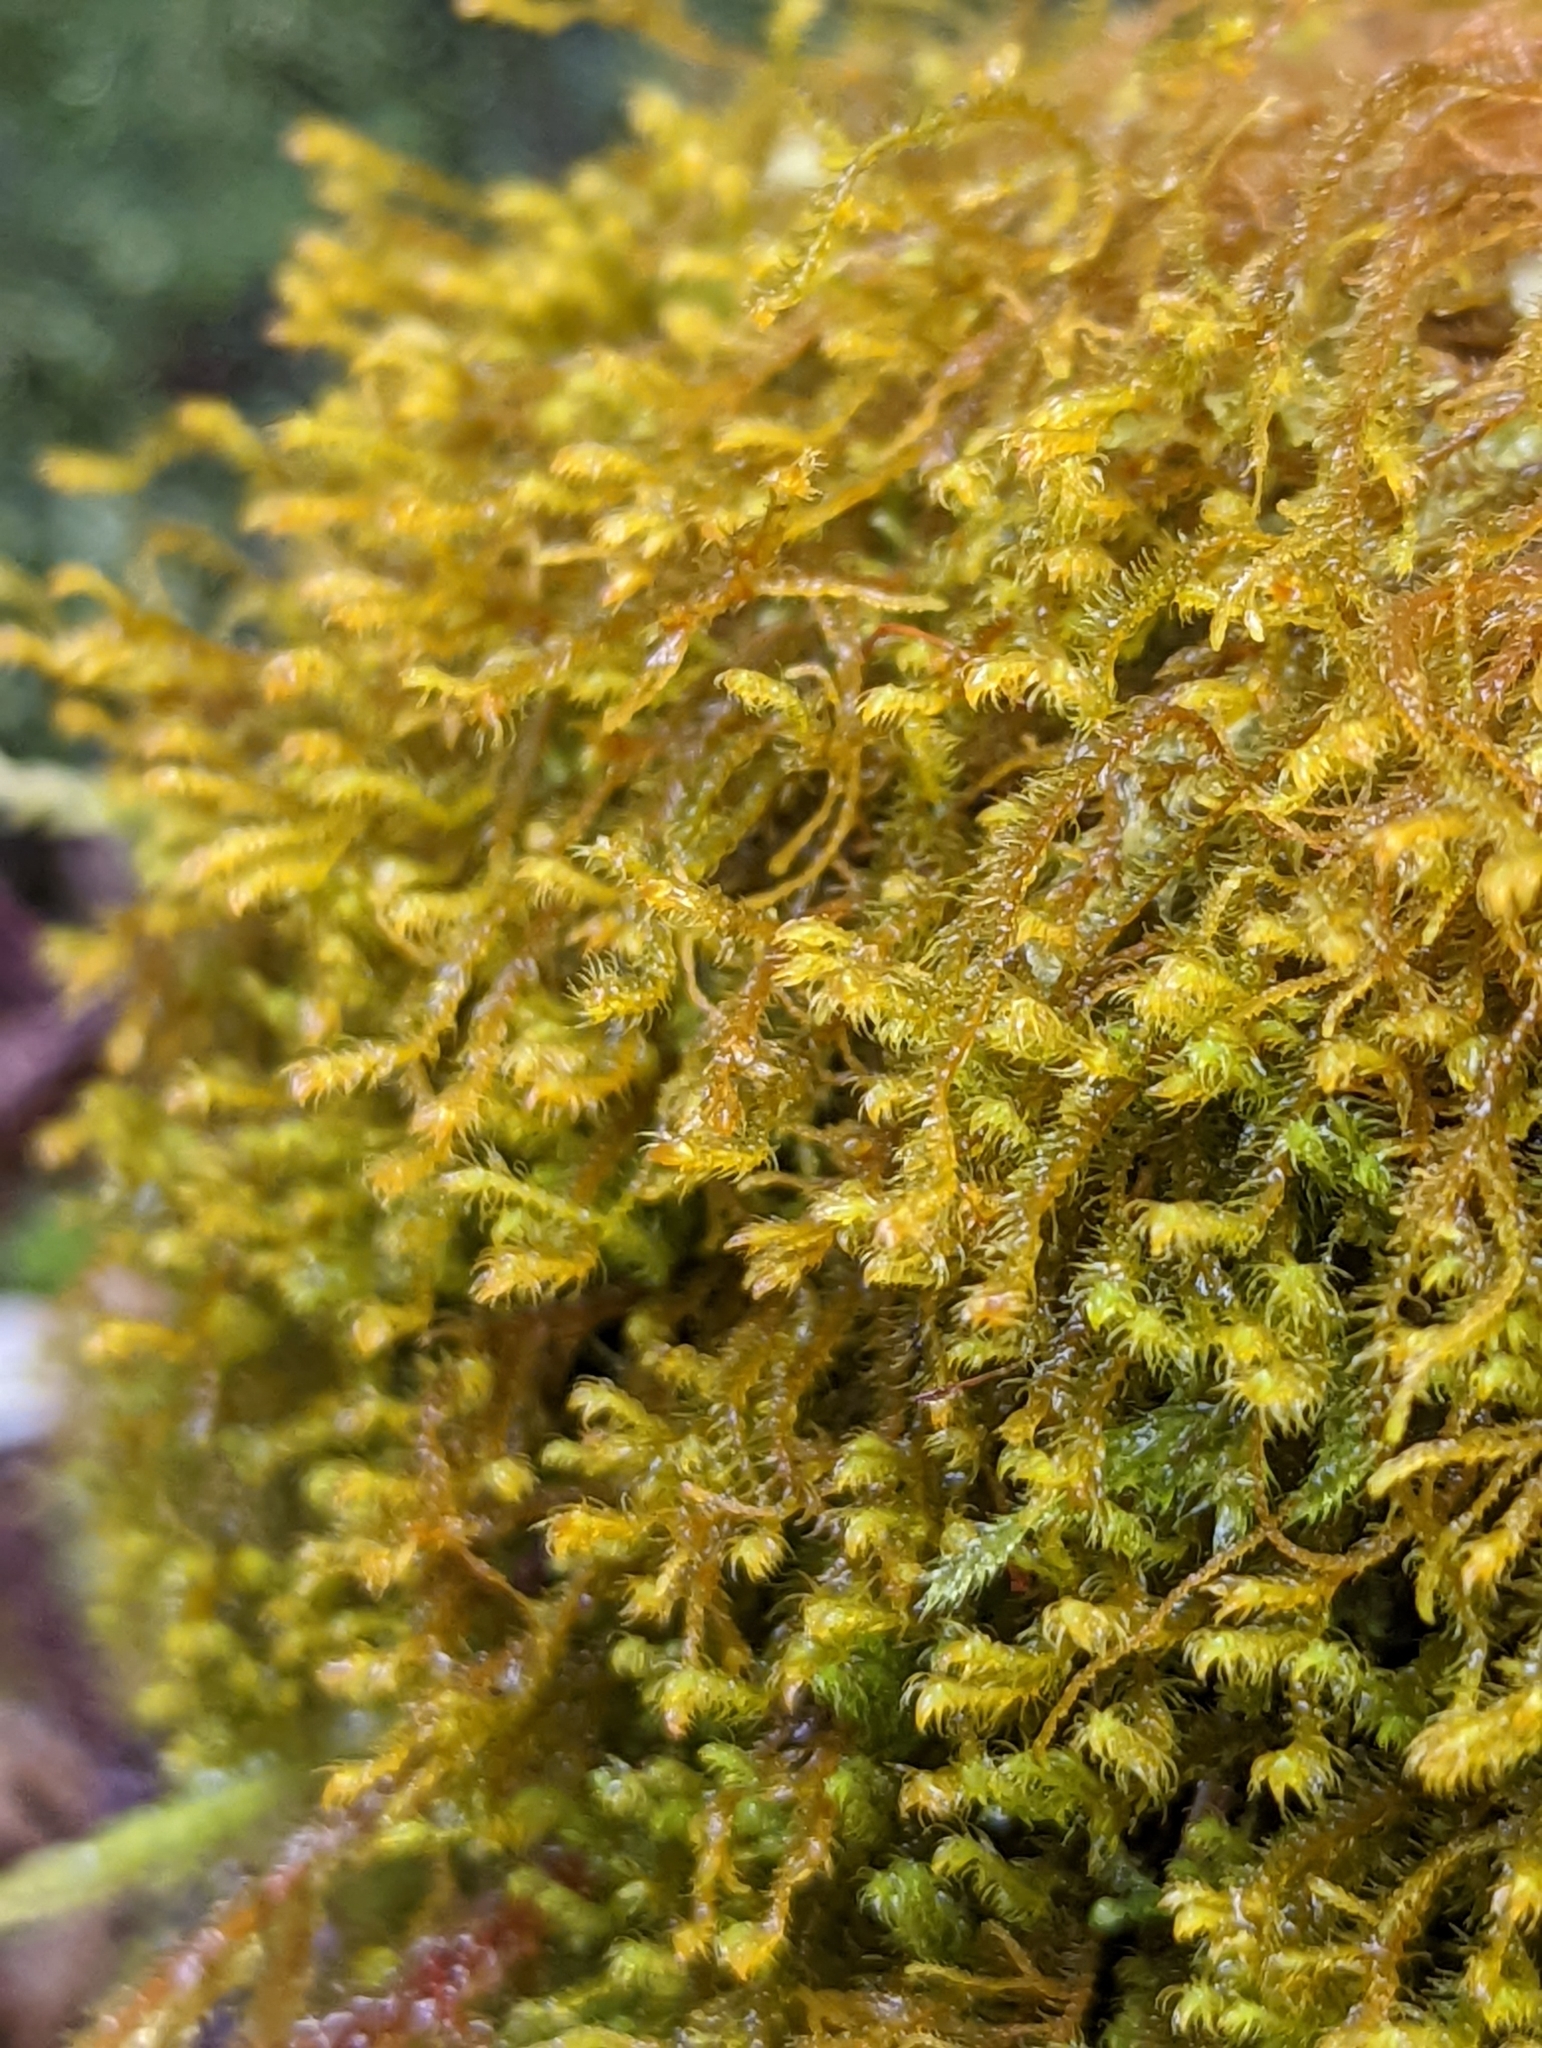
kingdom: Plantae
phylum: Marchantiophyta
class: Jungermanniopsida
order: Jungermanniales
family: Herbertaceae
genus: Herbertus
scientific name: Herbertus aduncus
